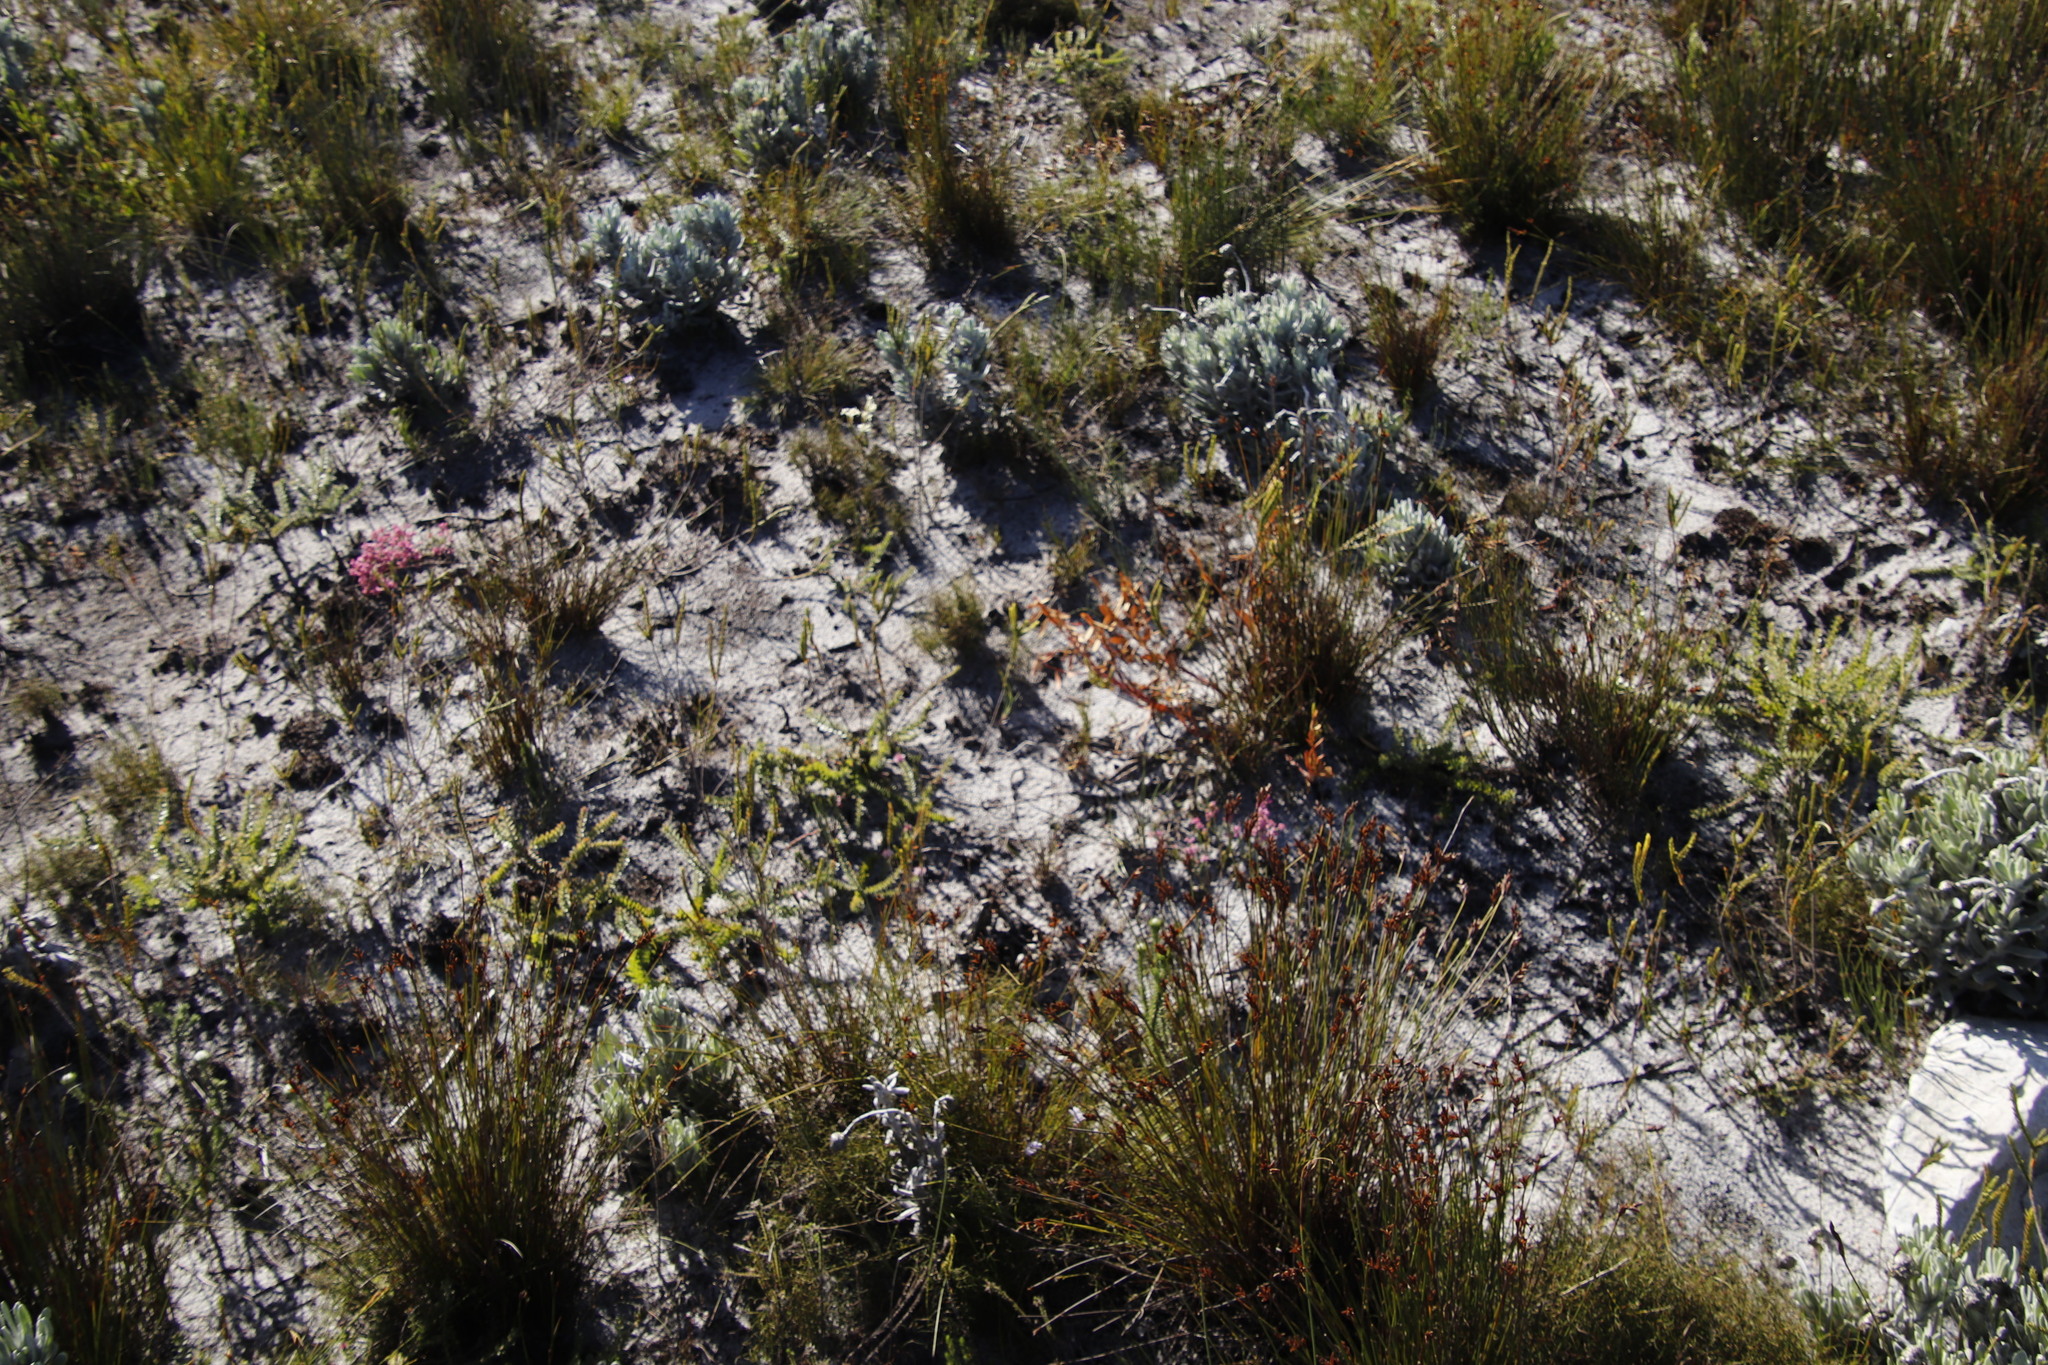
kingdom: Plantae
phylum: Tracheophyta
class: Magnoliopsida
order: Ericales
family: Ericaceae
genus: Erica
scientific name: Erica corifolia
